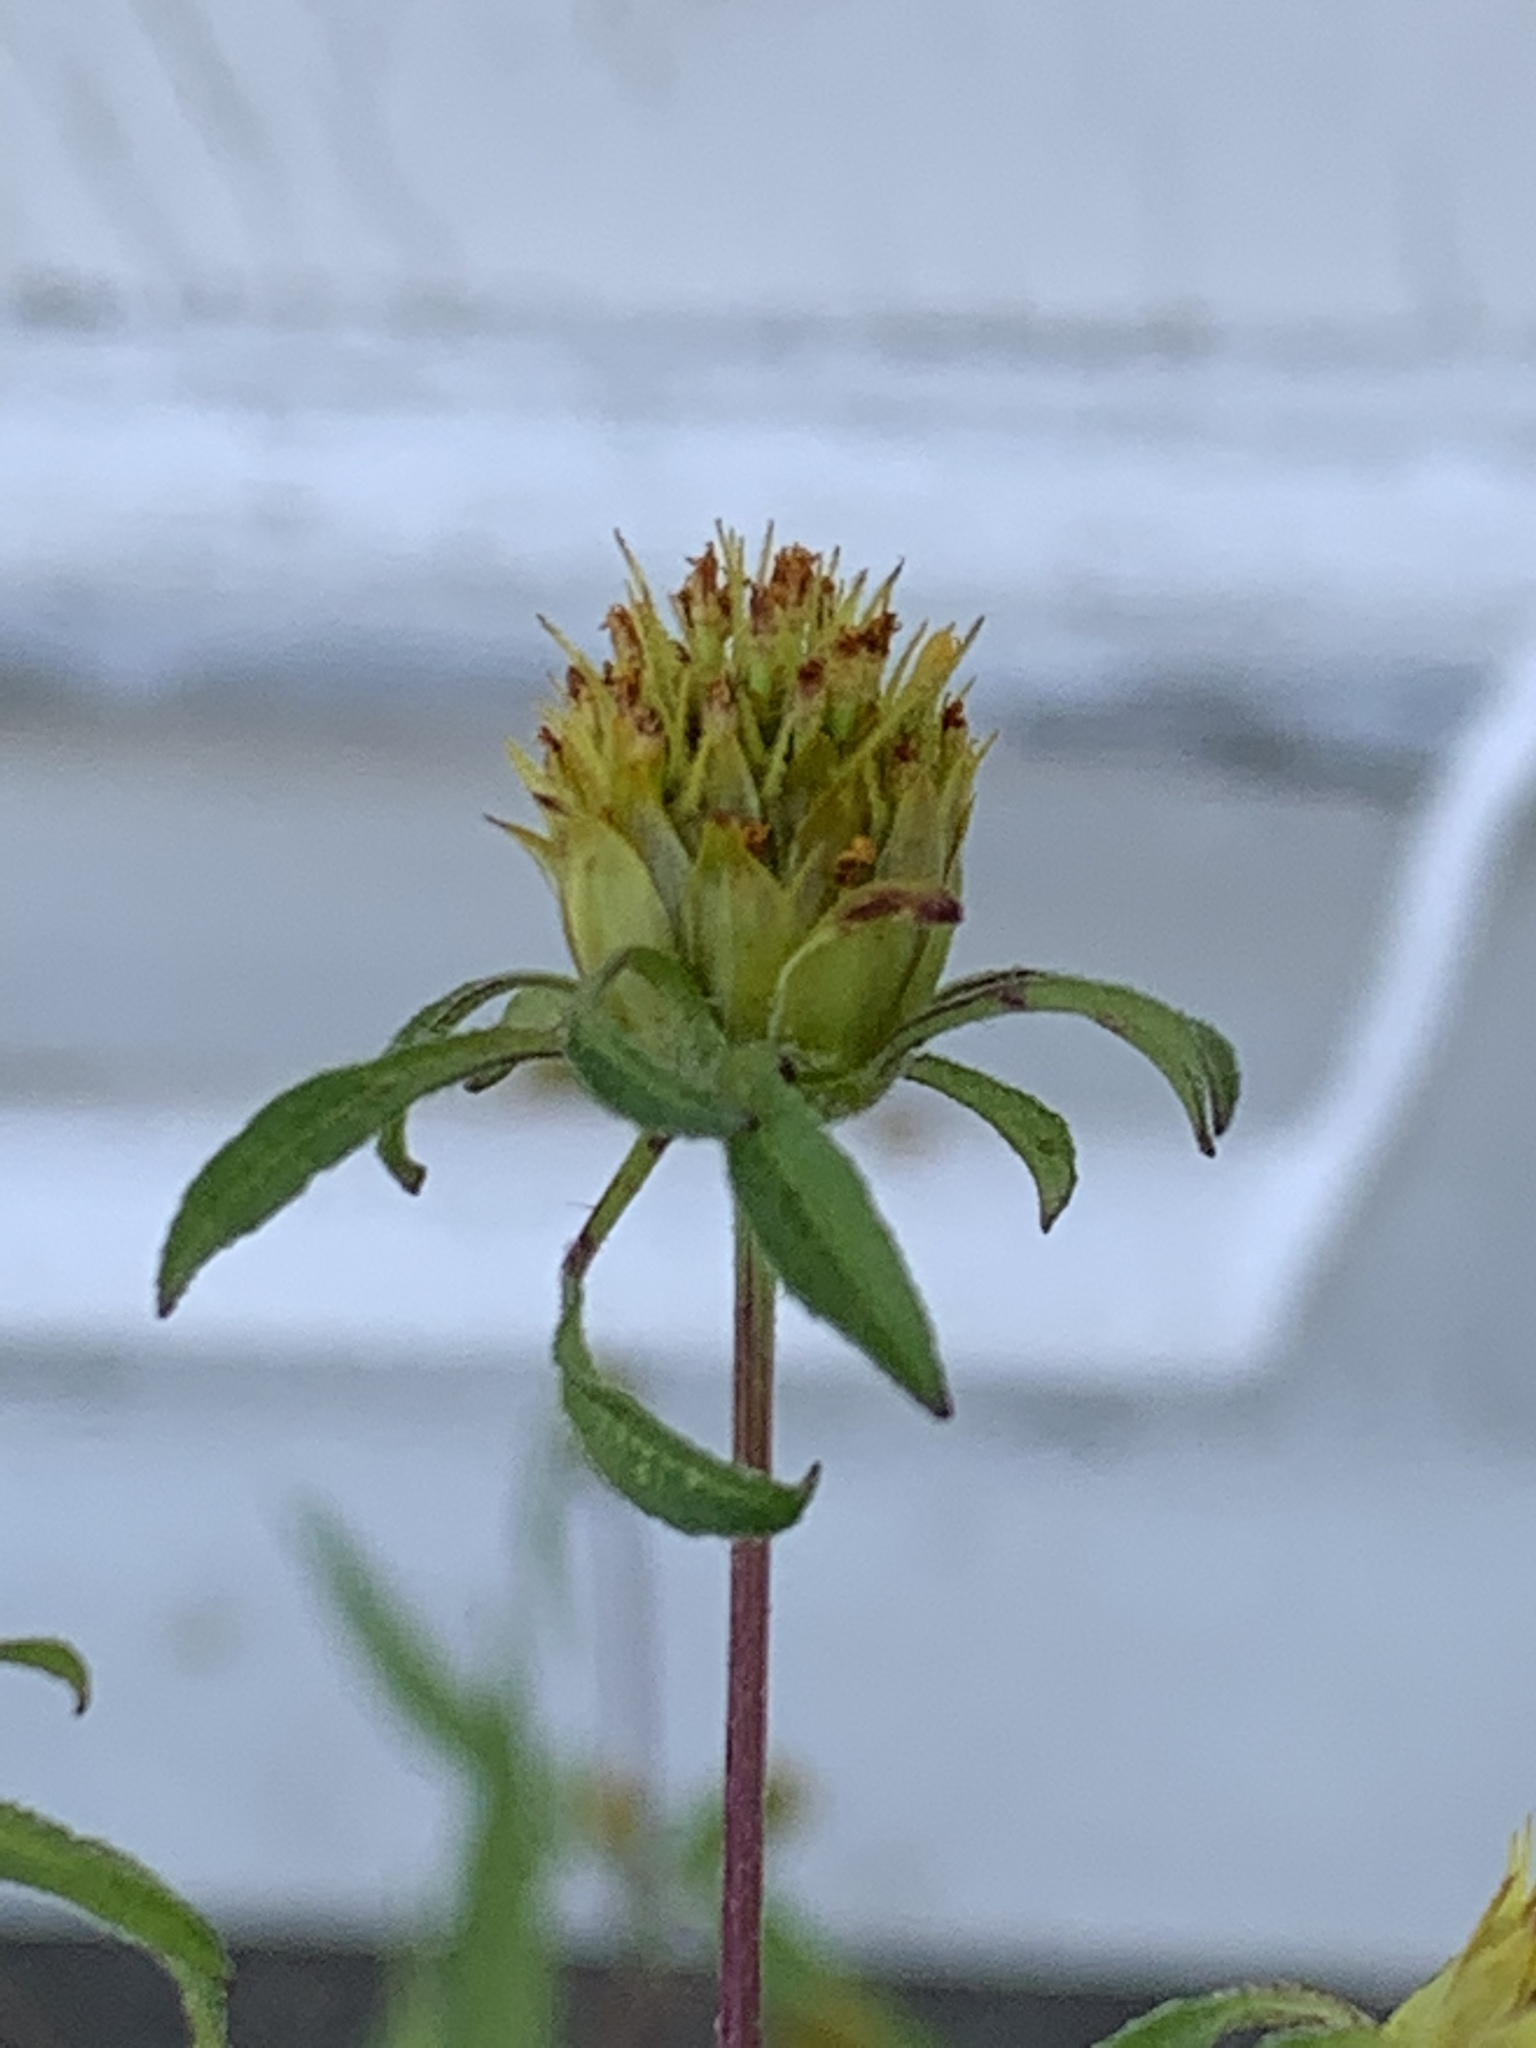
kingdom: Plantae
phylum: Tracheophyta
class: Magnoliopsida
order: Asterales
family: Asteraceae
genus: Bidens
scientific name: Bidens frondosa
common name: Beggarticks
